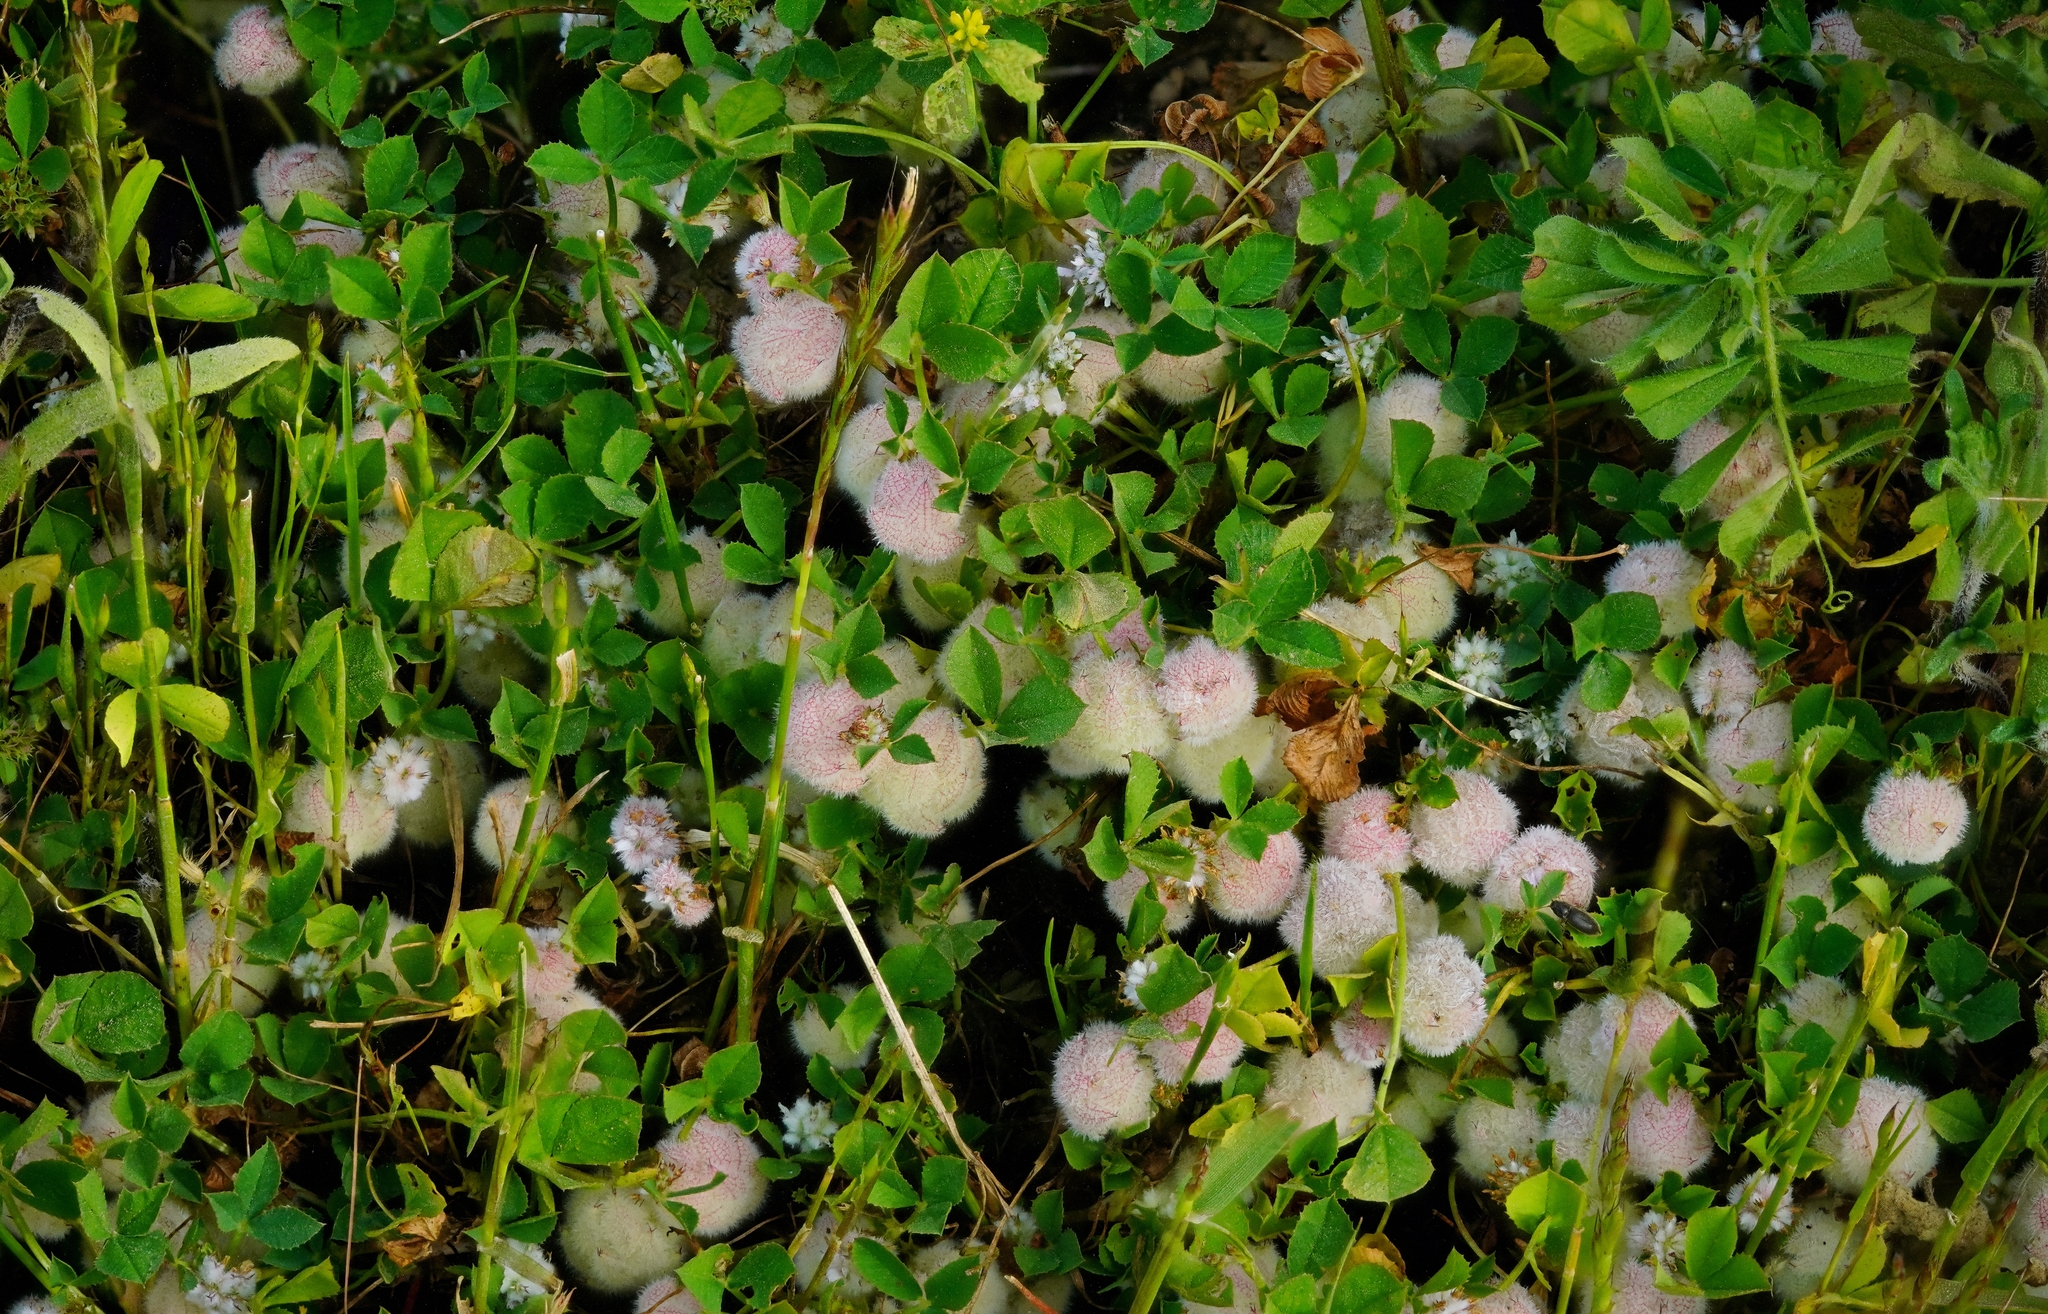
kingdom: Plantae
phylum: Tracheophyta
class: Magnoliopsida
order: Fabales
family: Fabaceae
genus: Trifolium
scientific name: Trifolium tomentosum
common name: Woolly clover
